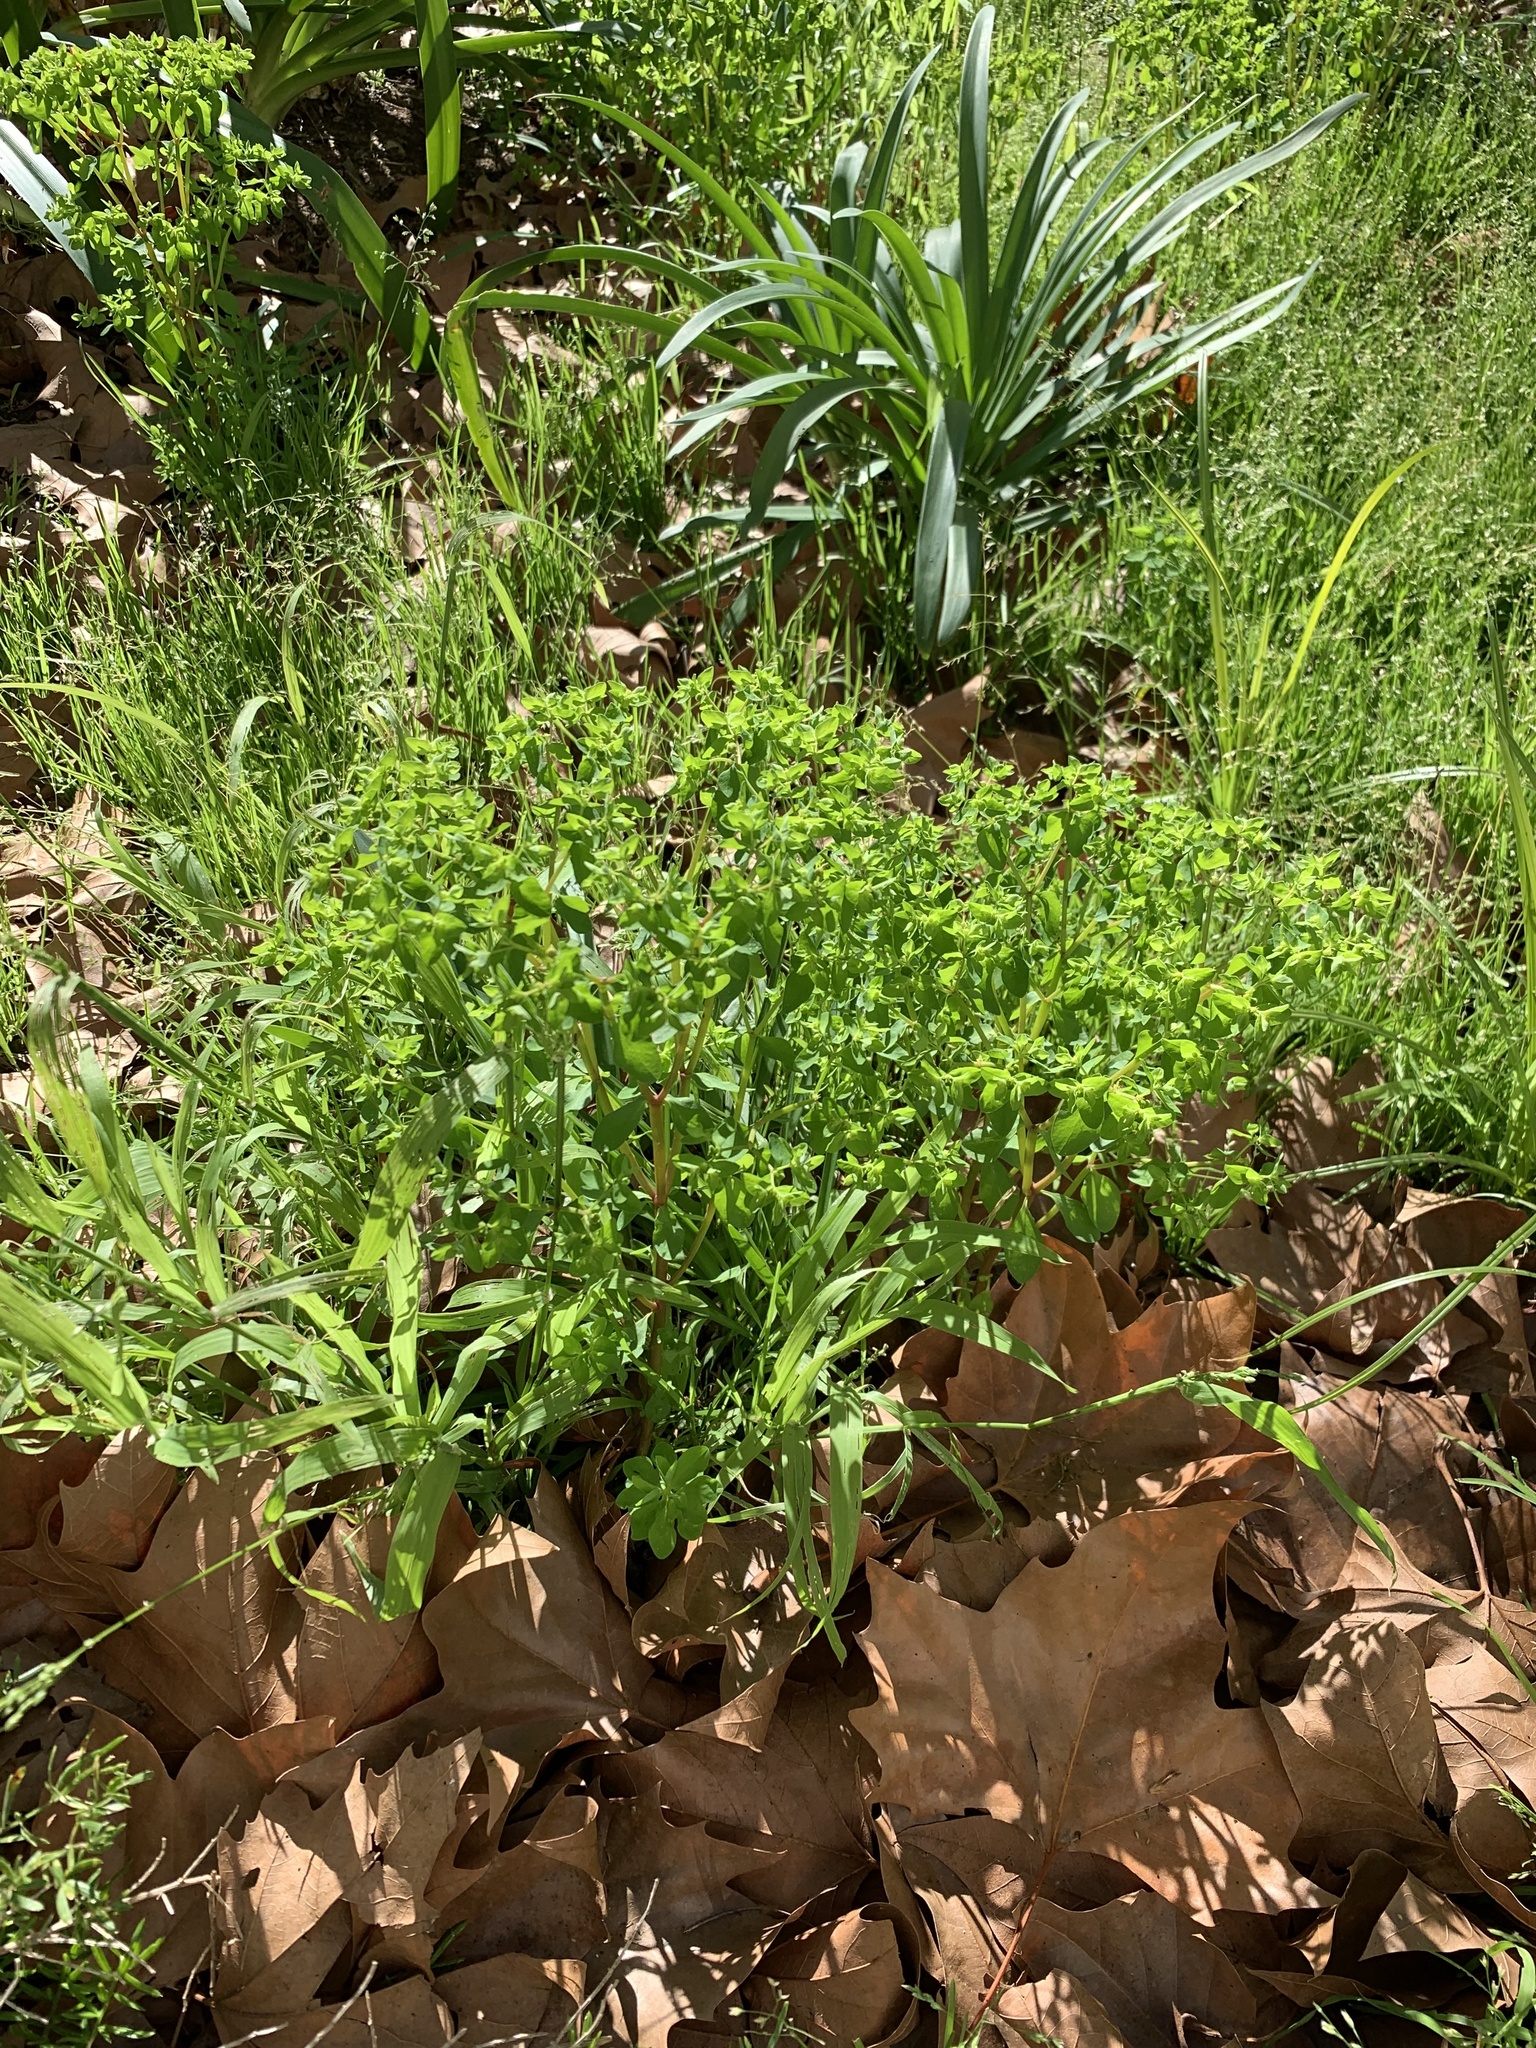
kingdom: Plantae
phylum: Tracheophyta
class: Magnoliopsida
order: Malpighiales
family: Euphorbiaceae
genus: Euphorbia
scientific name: Euphorbia peplus
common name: Petty spurge
